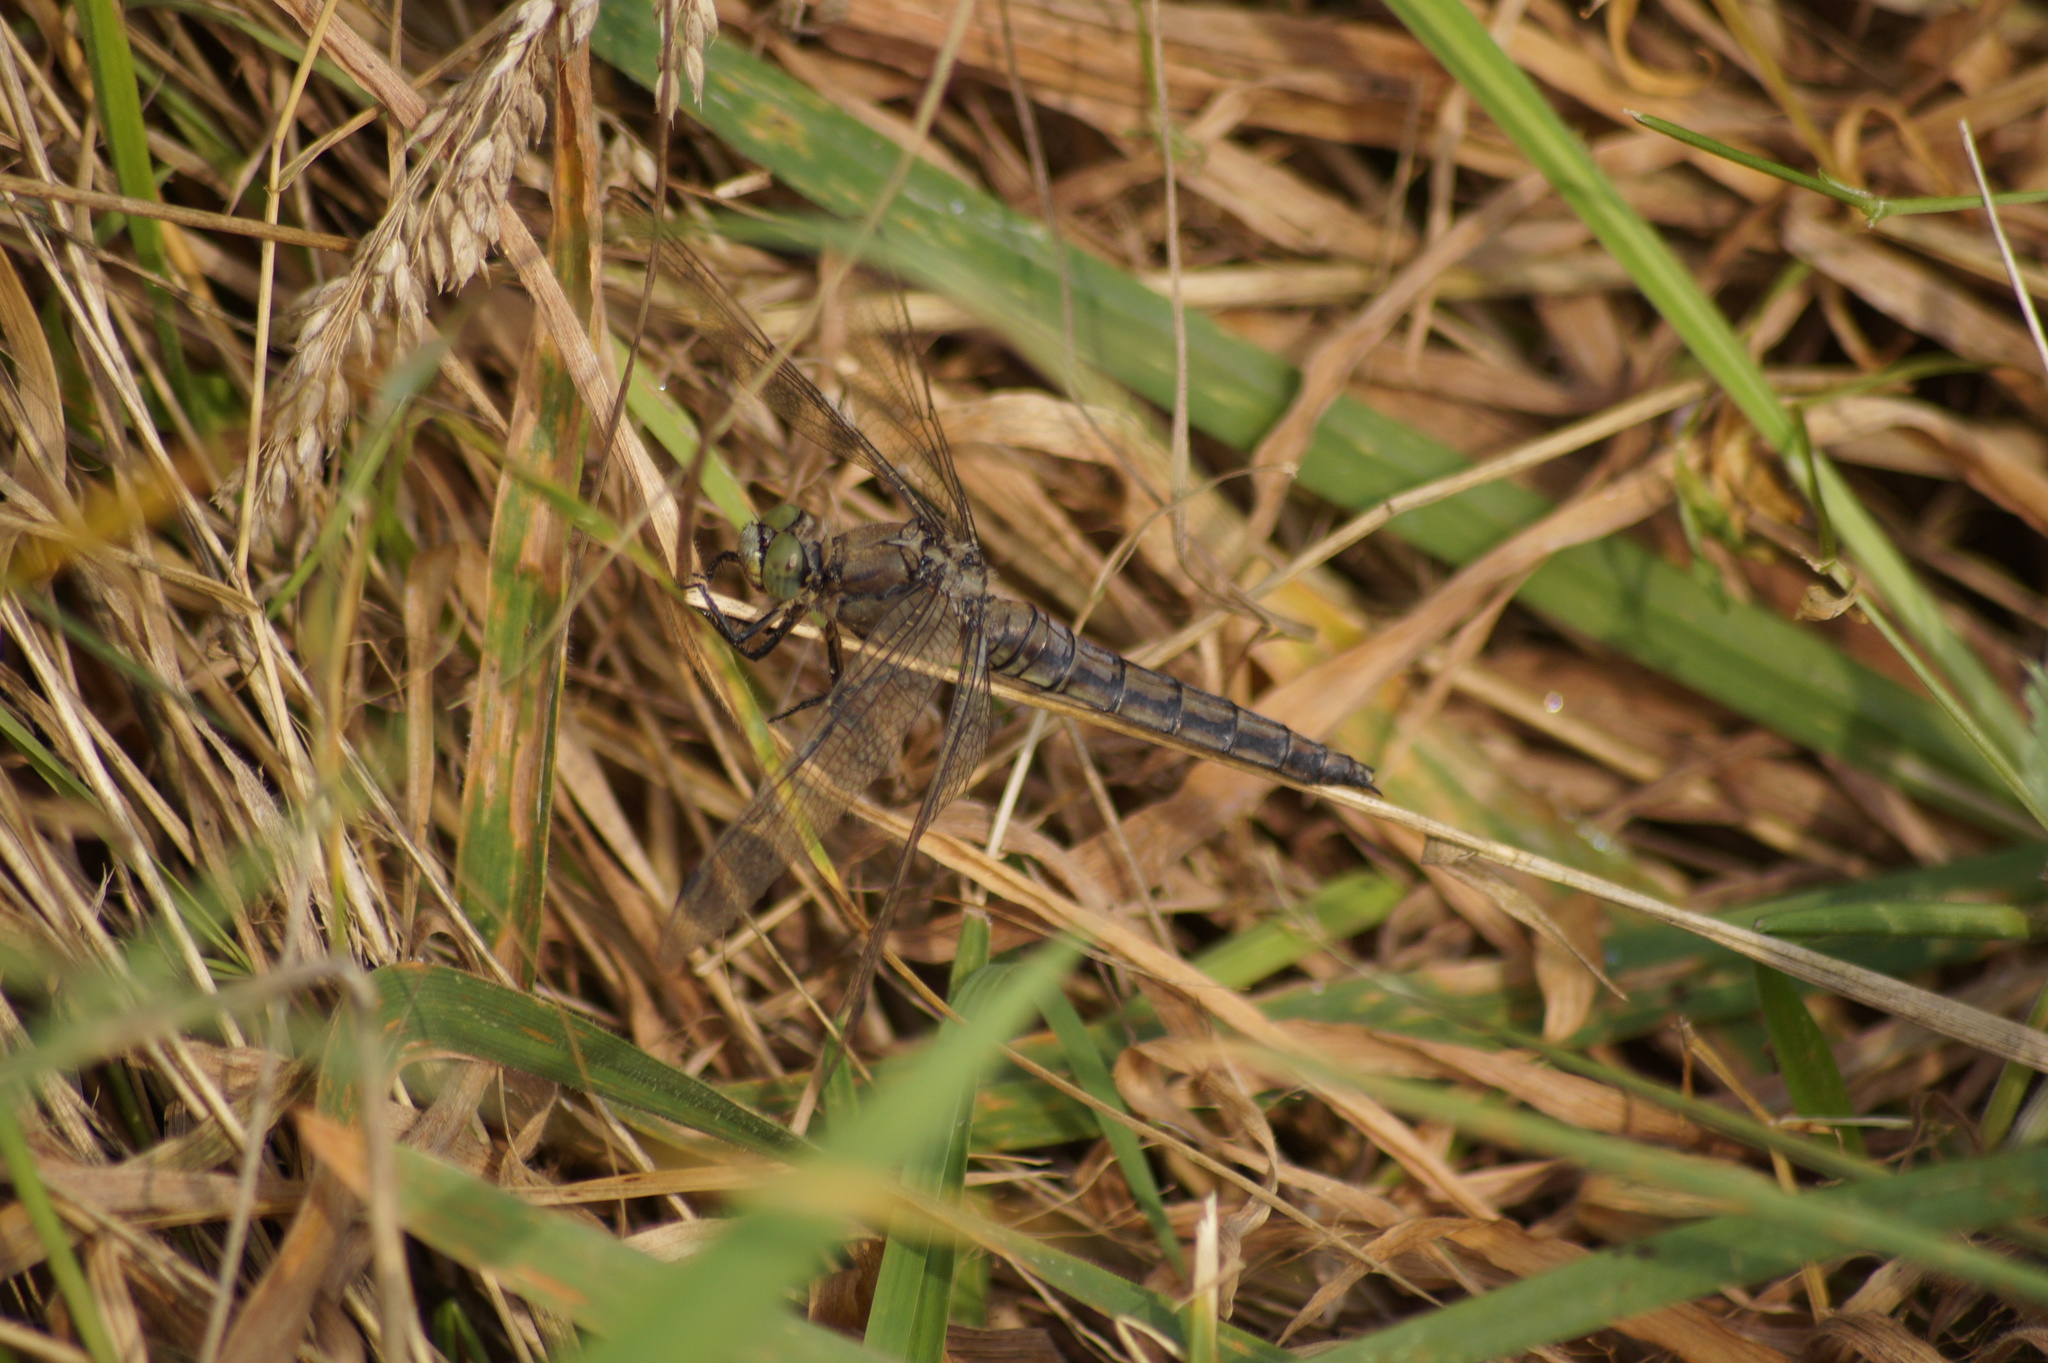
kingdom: Animalia
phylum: Arthropoda
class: Insecta
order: Odonata
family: Libellulidae
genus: Orthetrum
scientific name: Orthetrum cancellatum
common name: Black-tailed skimmer
